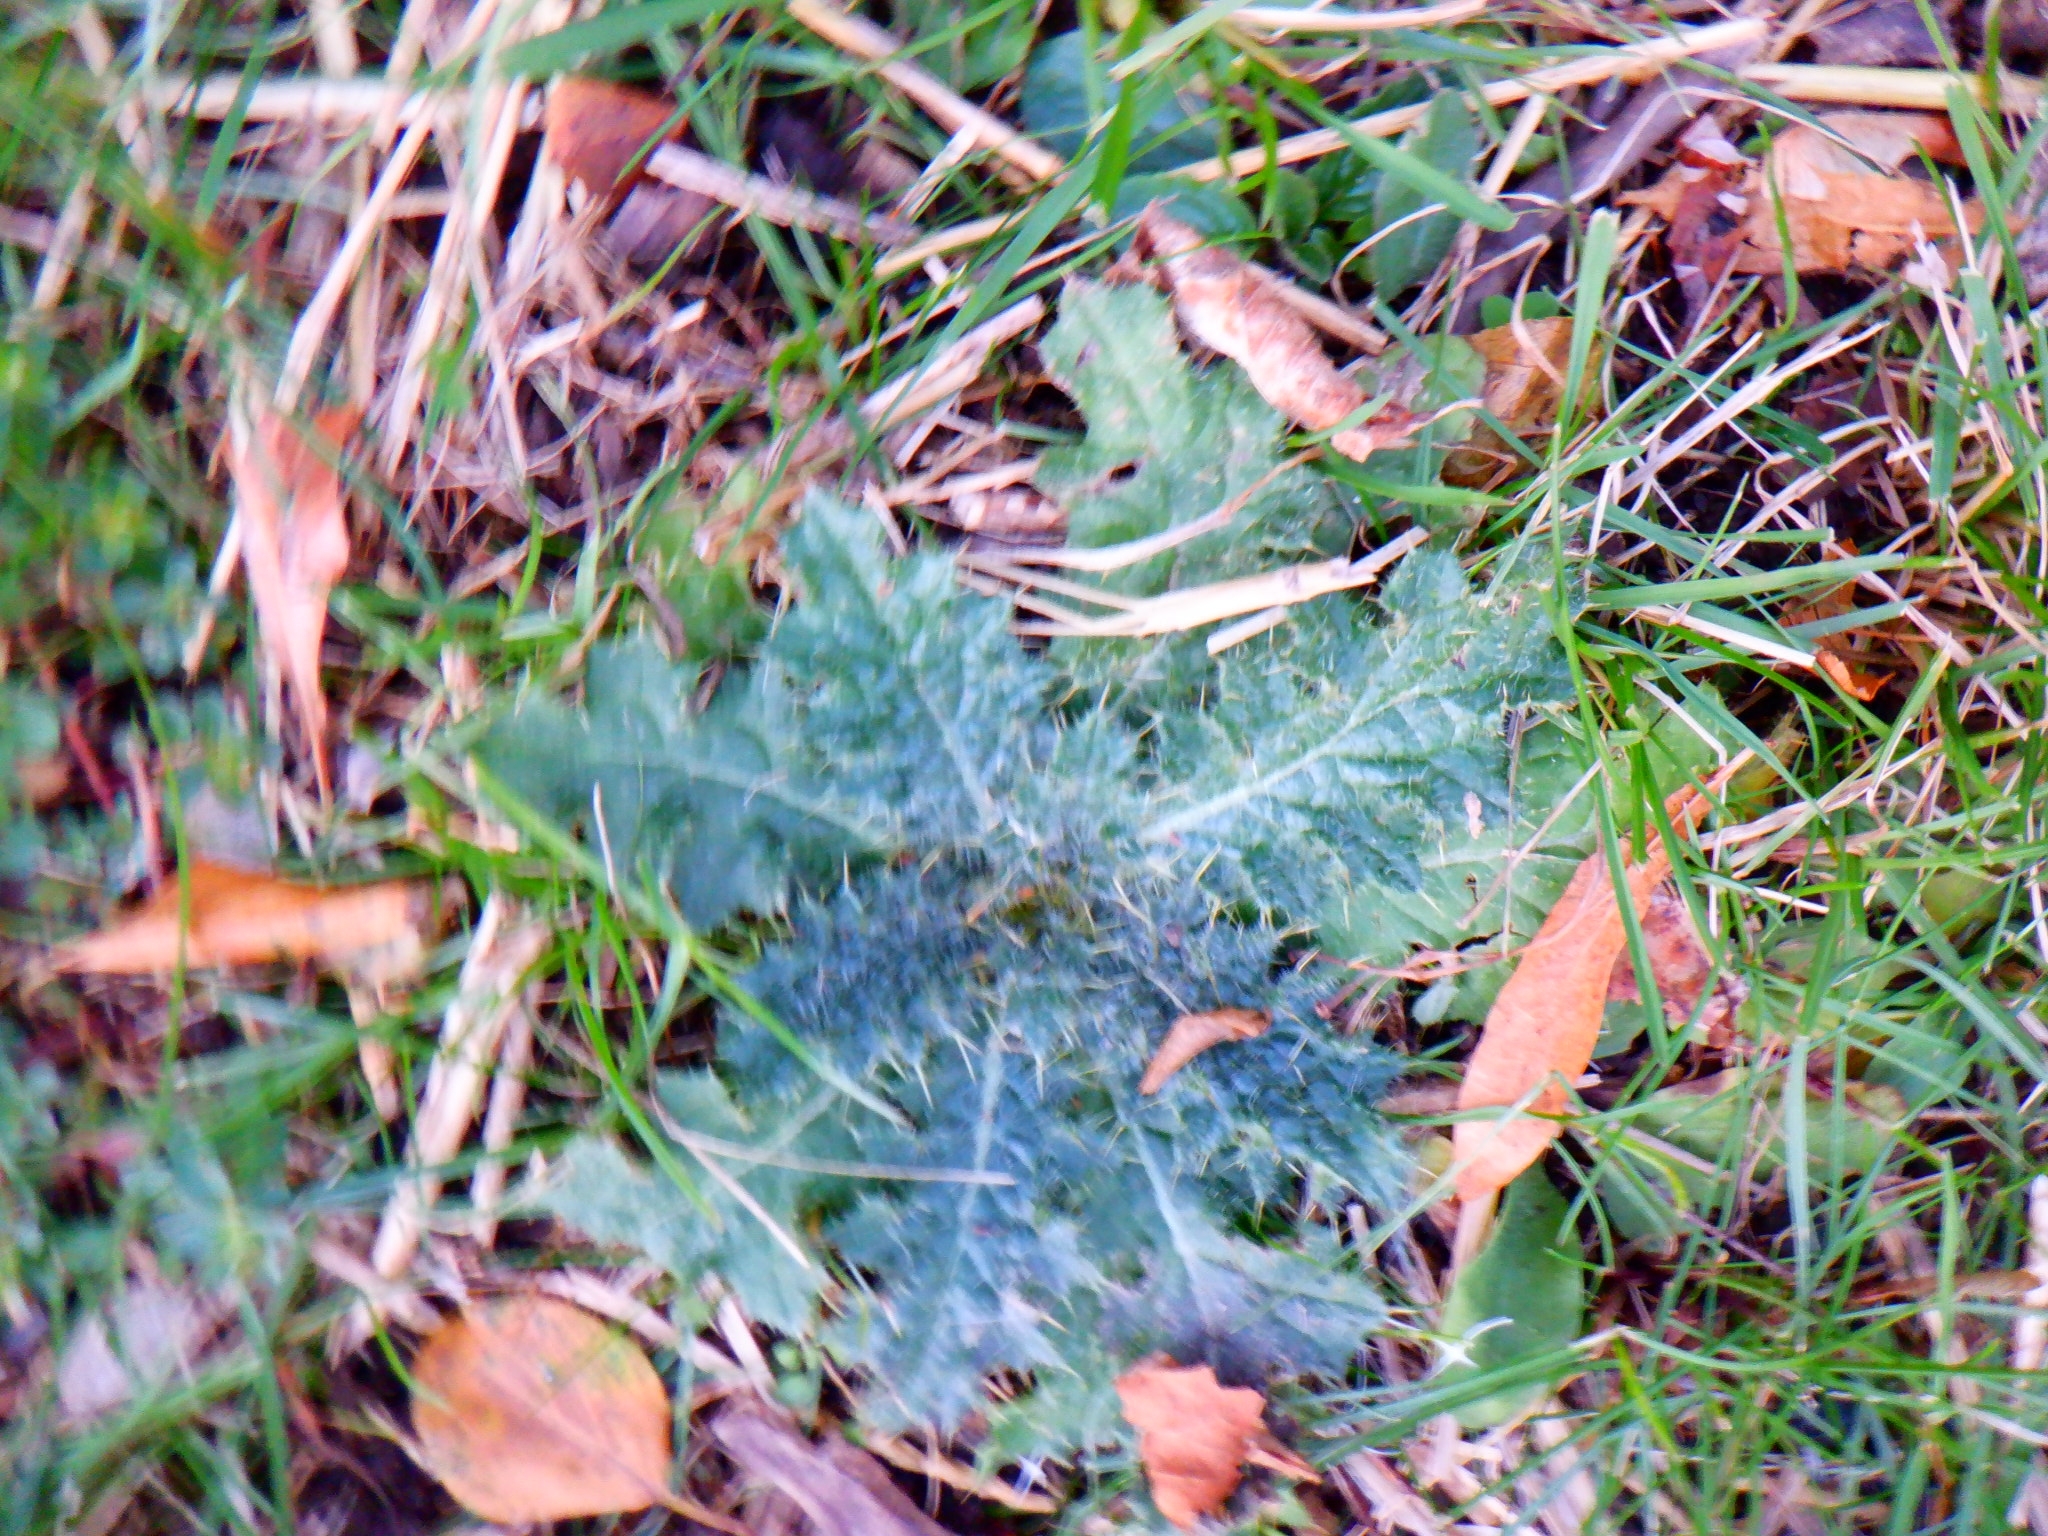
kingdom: Plantae
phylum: Tracheophyta
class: Magnoliopsida
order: Asterales
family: Asteraceae
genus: Cirsium
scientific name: Cirsium vulgare
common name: Bull thistle
